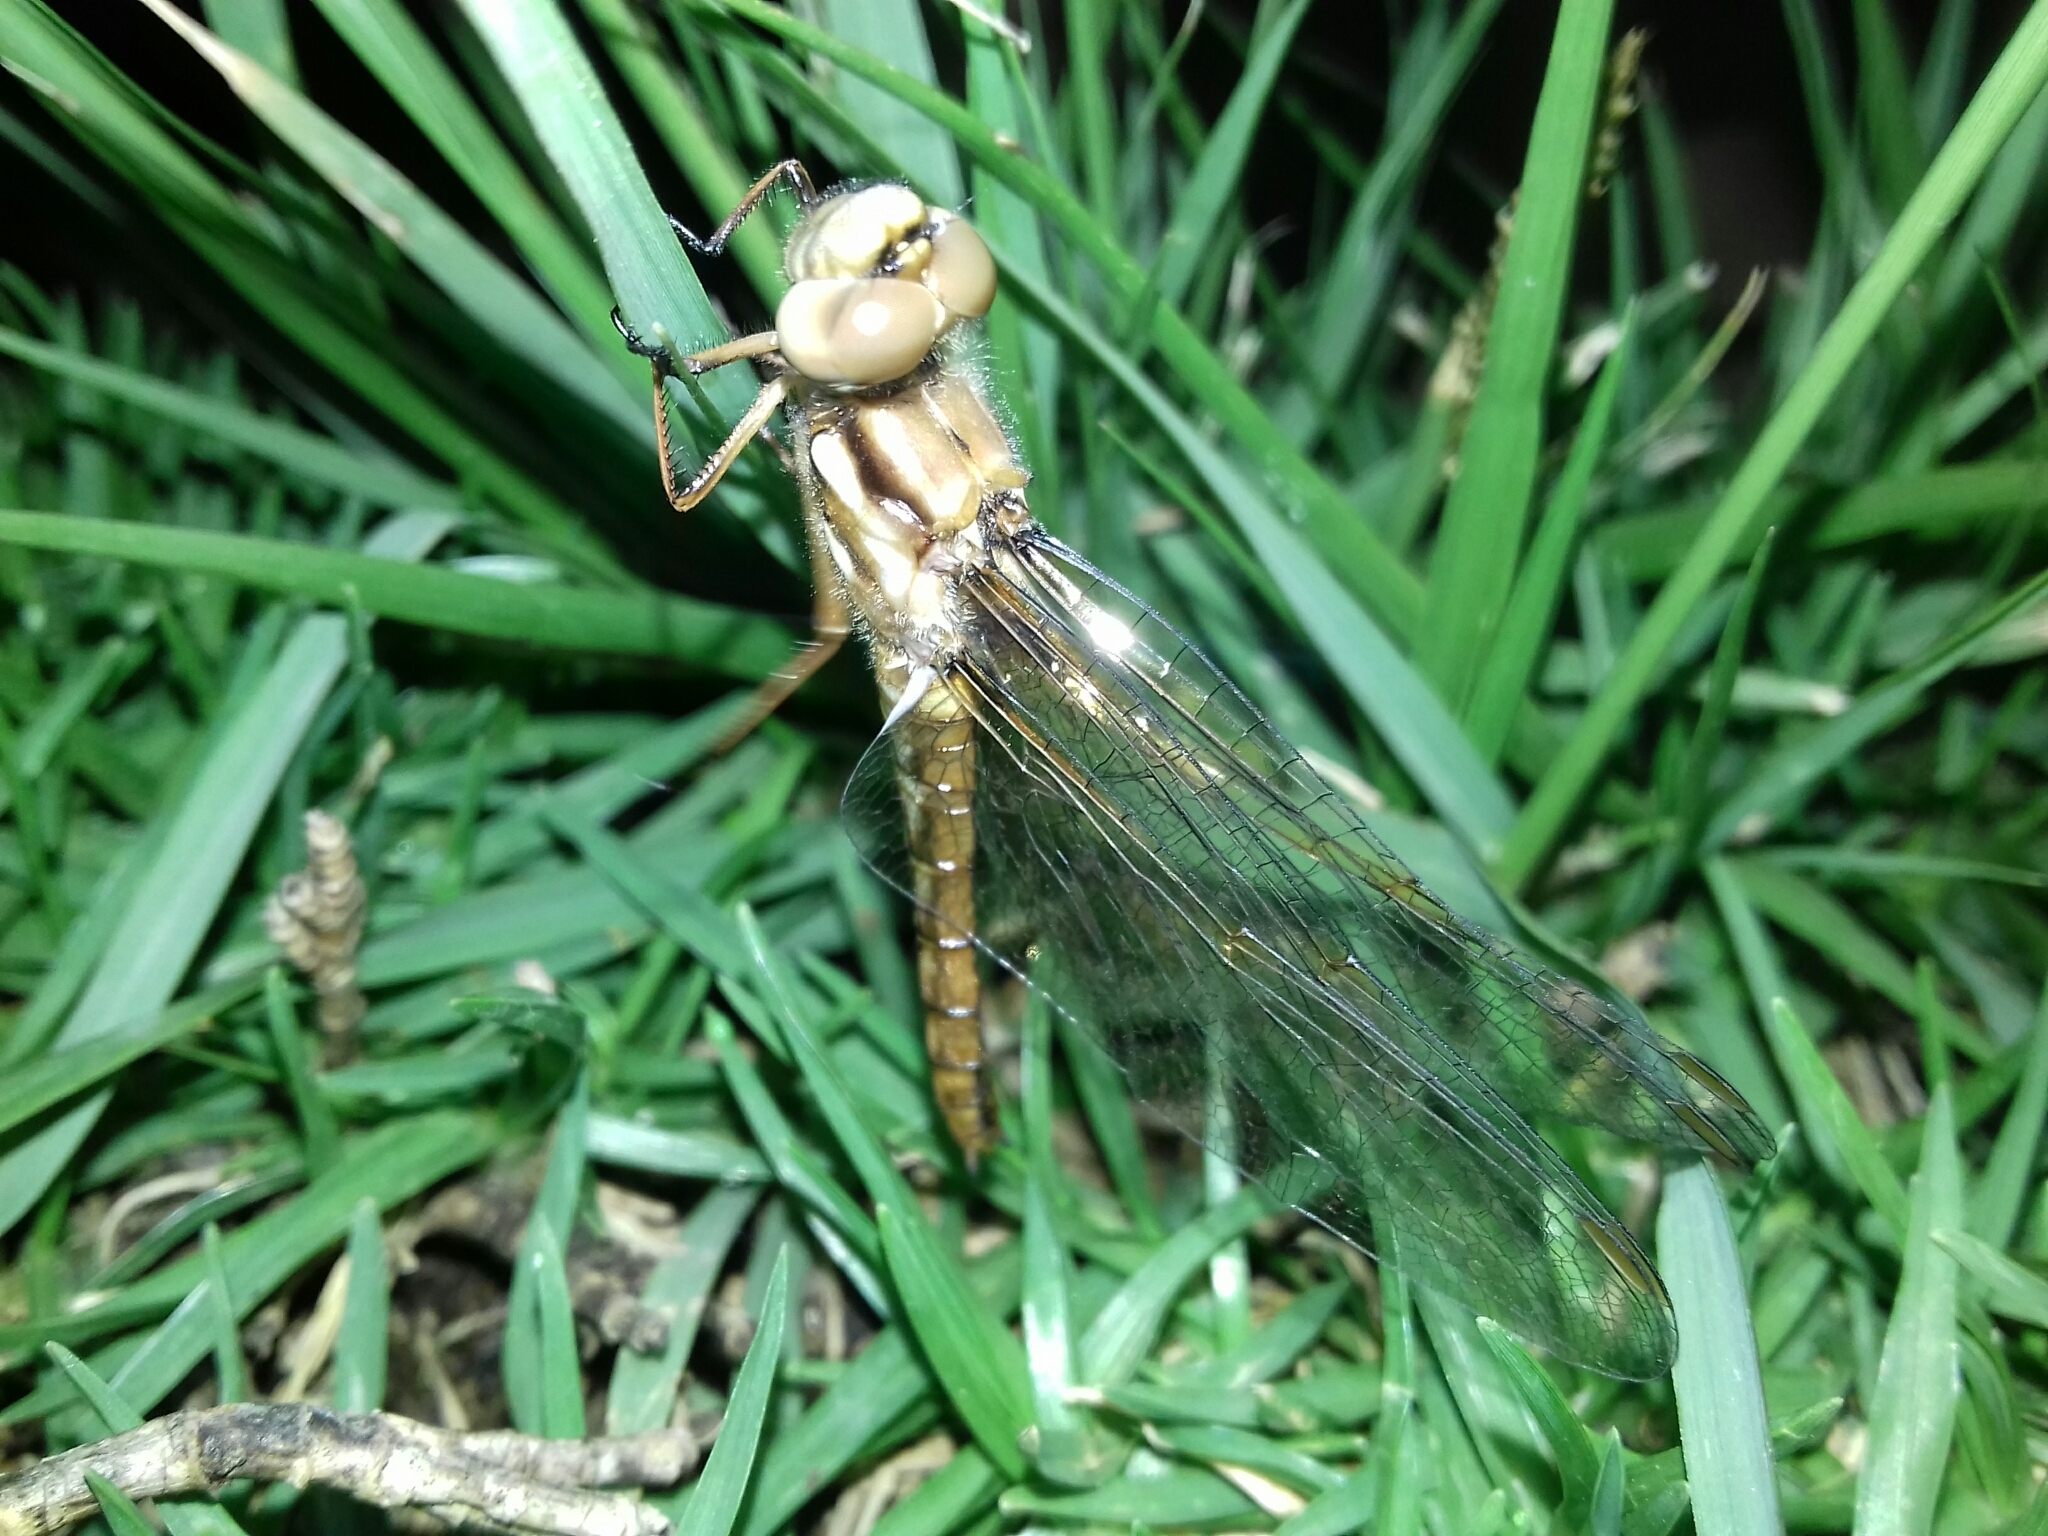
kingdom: Animalia
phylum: Arthropoda
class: Insecta
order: Odonata
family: Libellulidae
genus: Sympetrum
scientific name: Sympetrum illotum
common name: Cardinal meadowhawk
